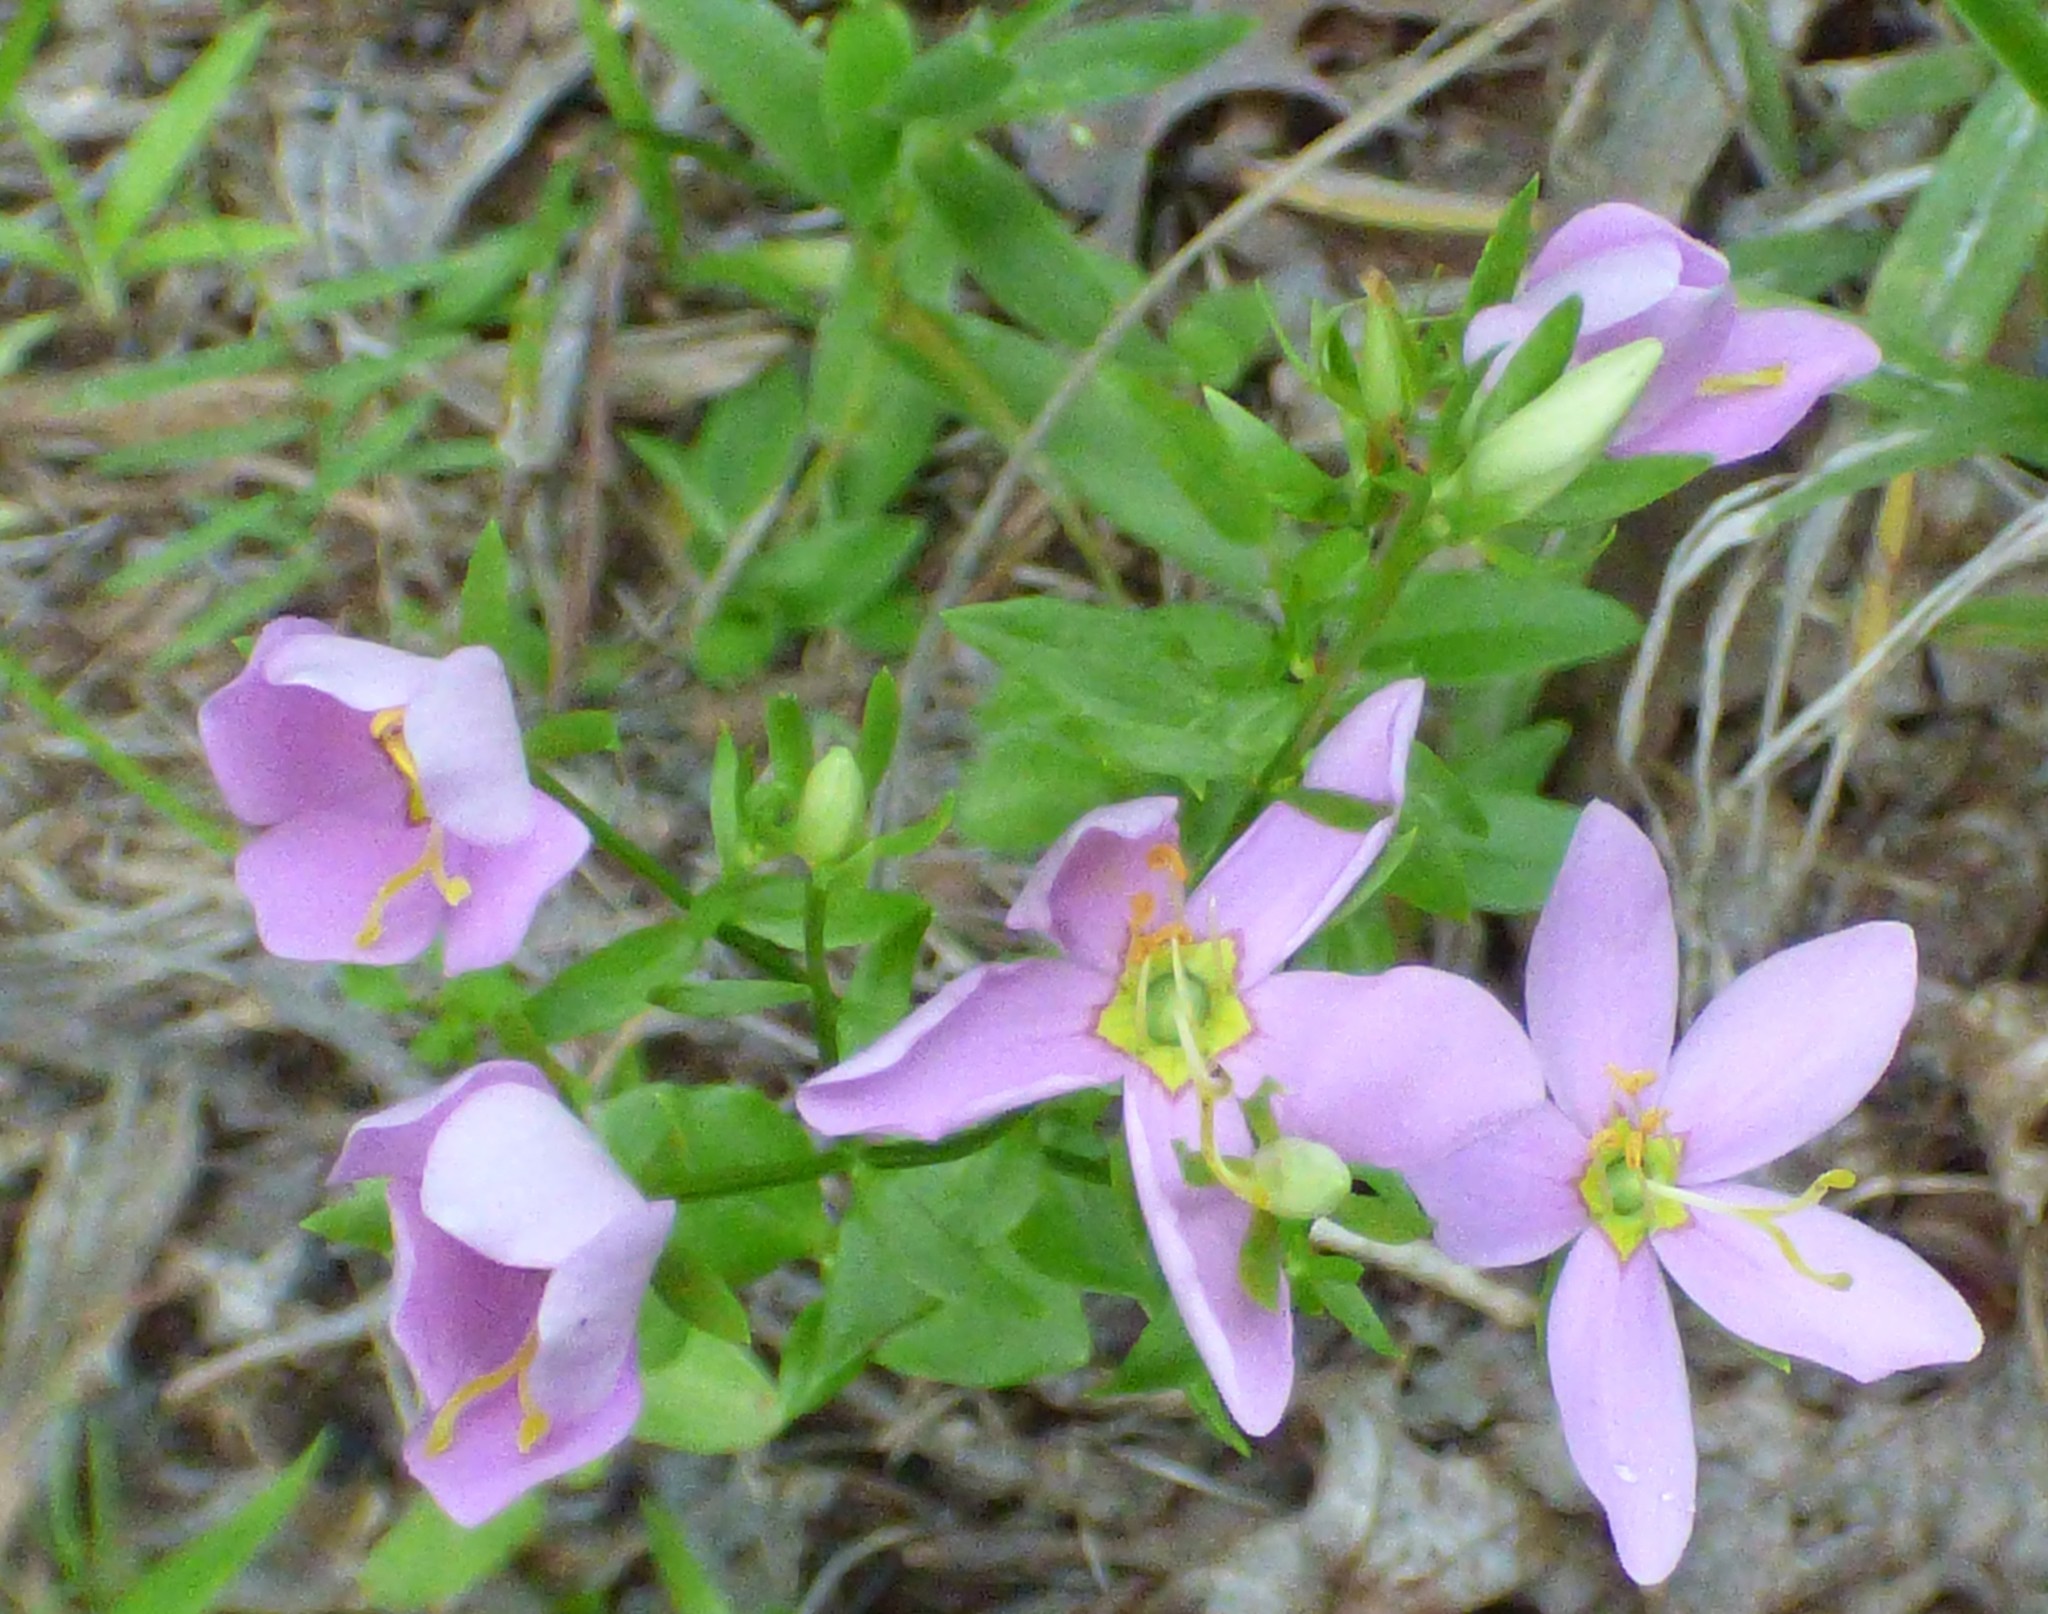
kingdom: Plantae
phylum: Tracheophyta
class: Magnoliopsida
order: Gentianales
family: Gentianaceae
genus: Sabatia
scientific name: Sabatia angularis
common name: Rose-pink
